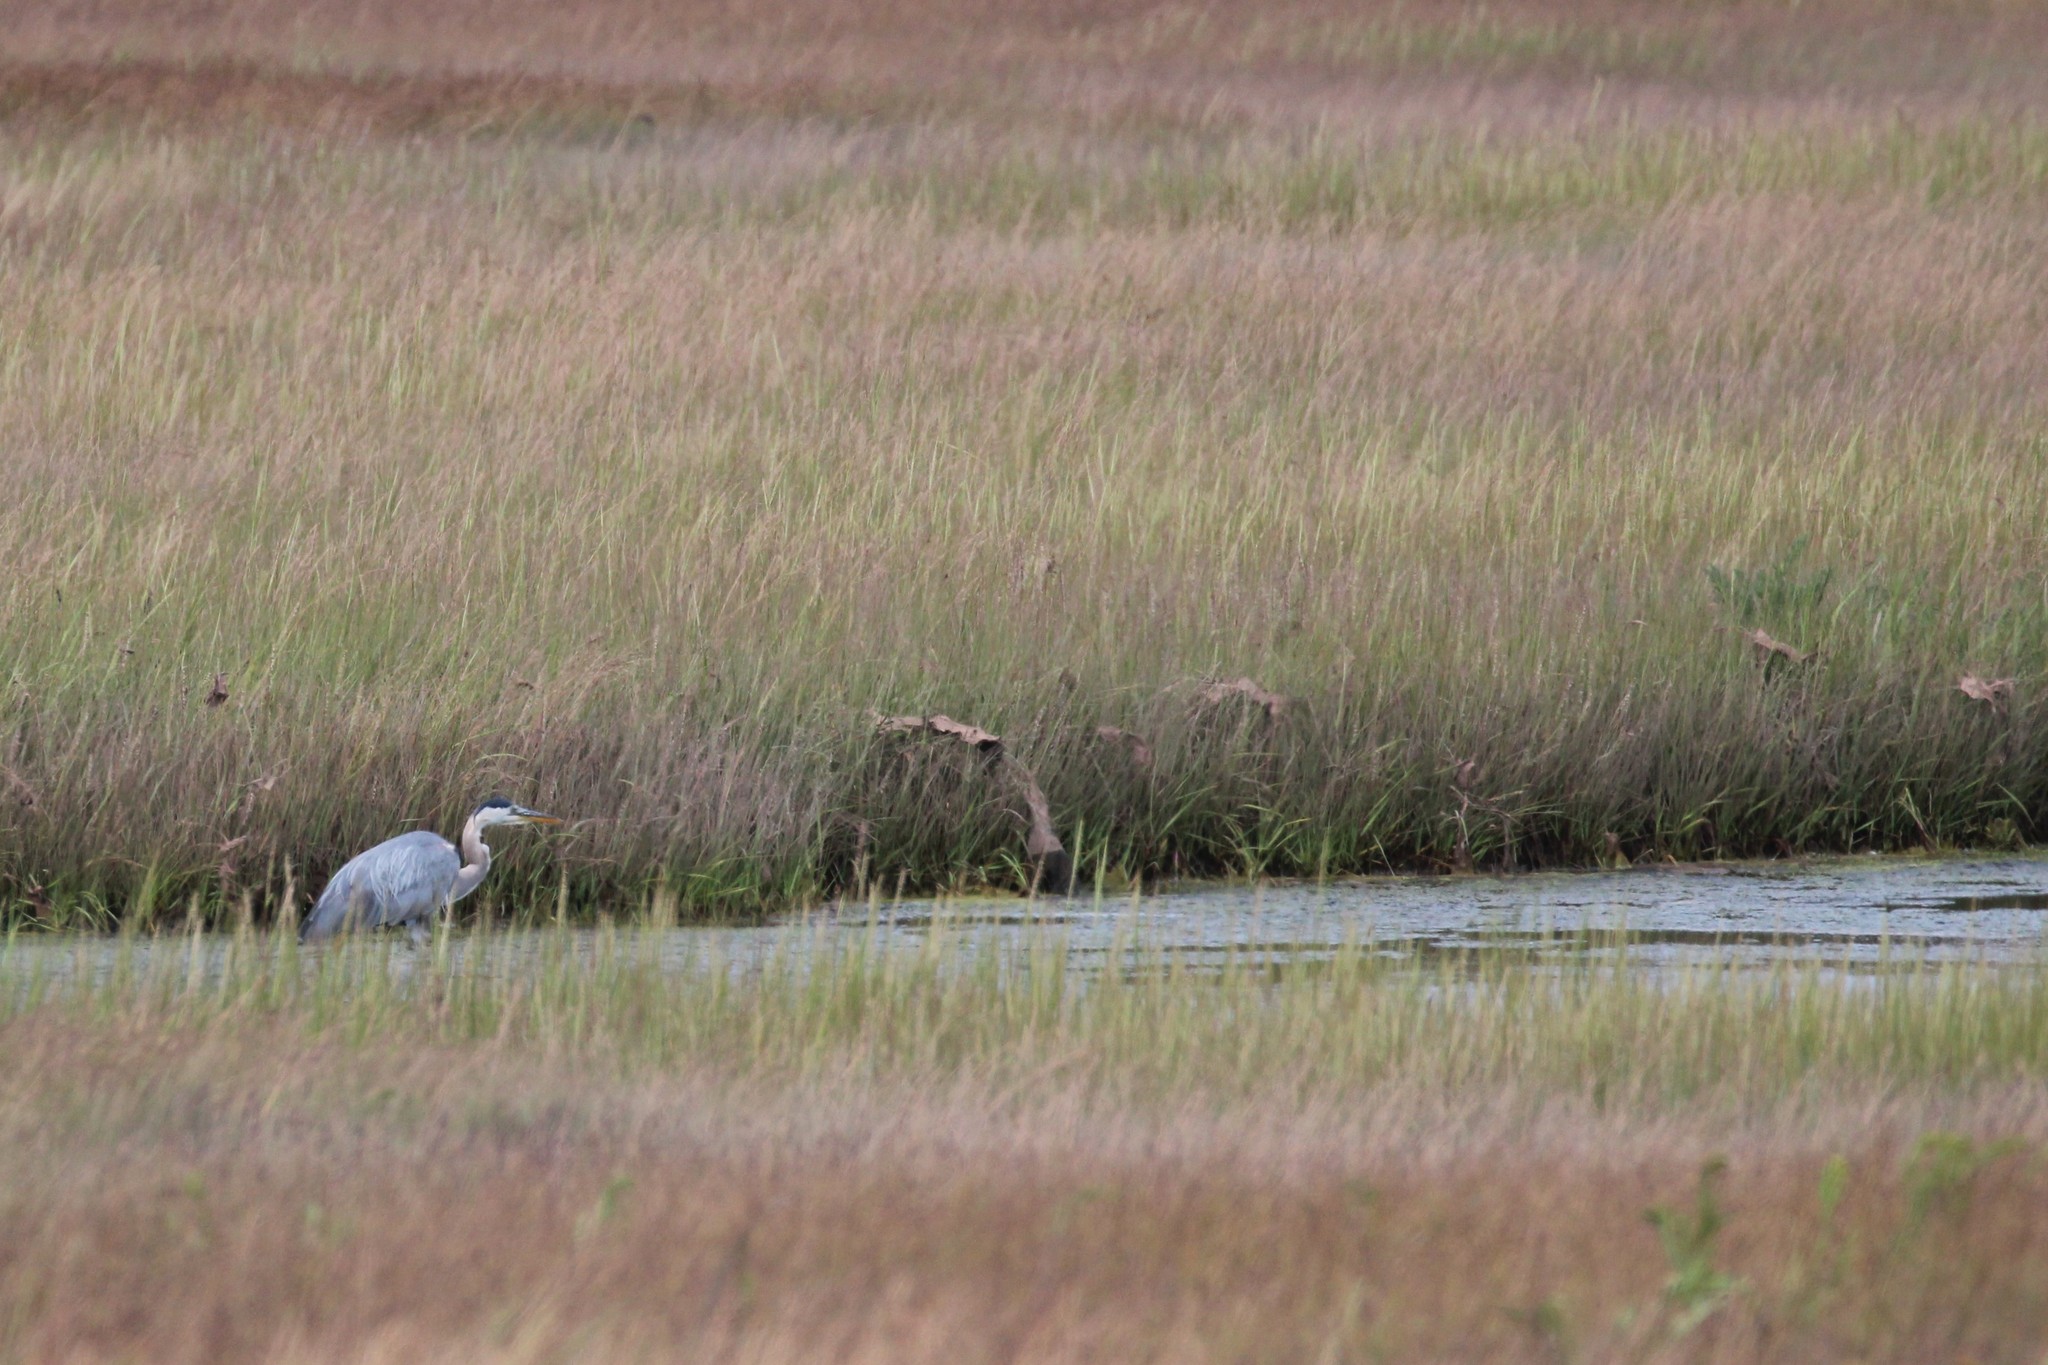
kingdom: Animalia
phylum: Chordata
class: Aves
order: Pelecaniformes
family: Ardeidae
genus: Ardea
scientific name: Ardea herodias
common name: Great blue heron
